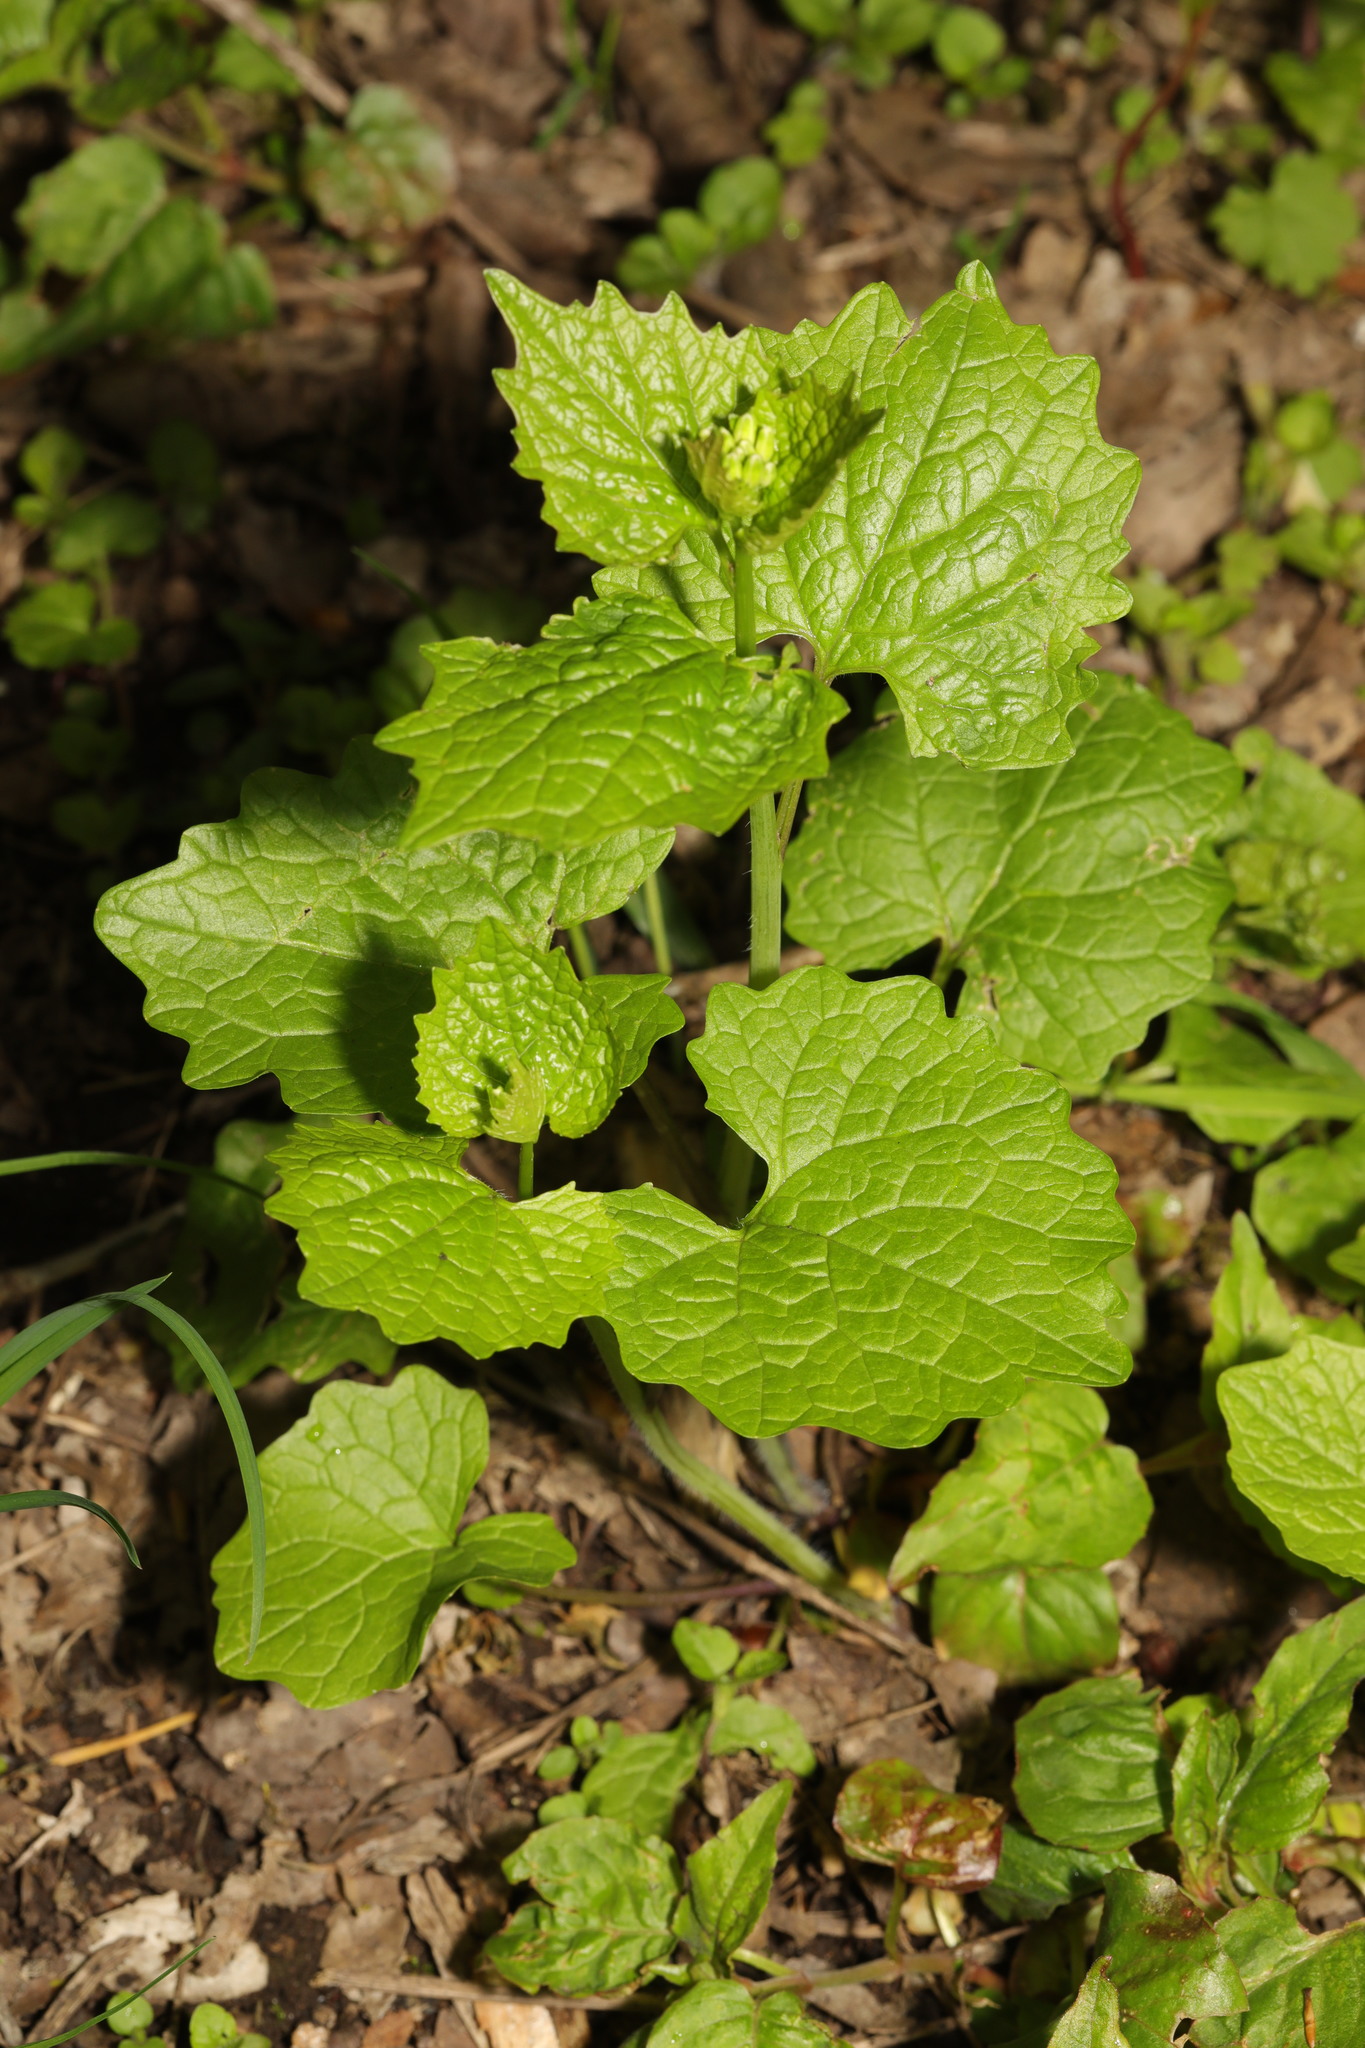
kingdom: Plantae
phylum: Tracheophyta
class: Magnoliopsida
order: Brassicales
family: Brassicaceae
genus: Alliaria
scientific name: Alliaria petiolata
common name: Garlic mustard
